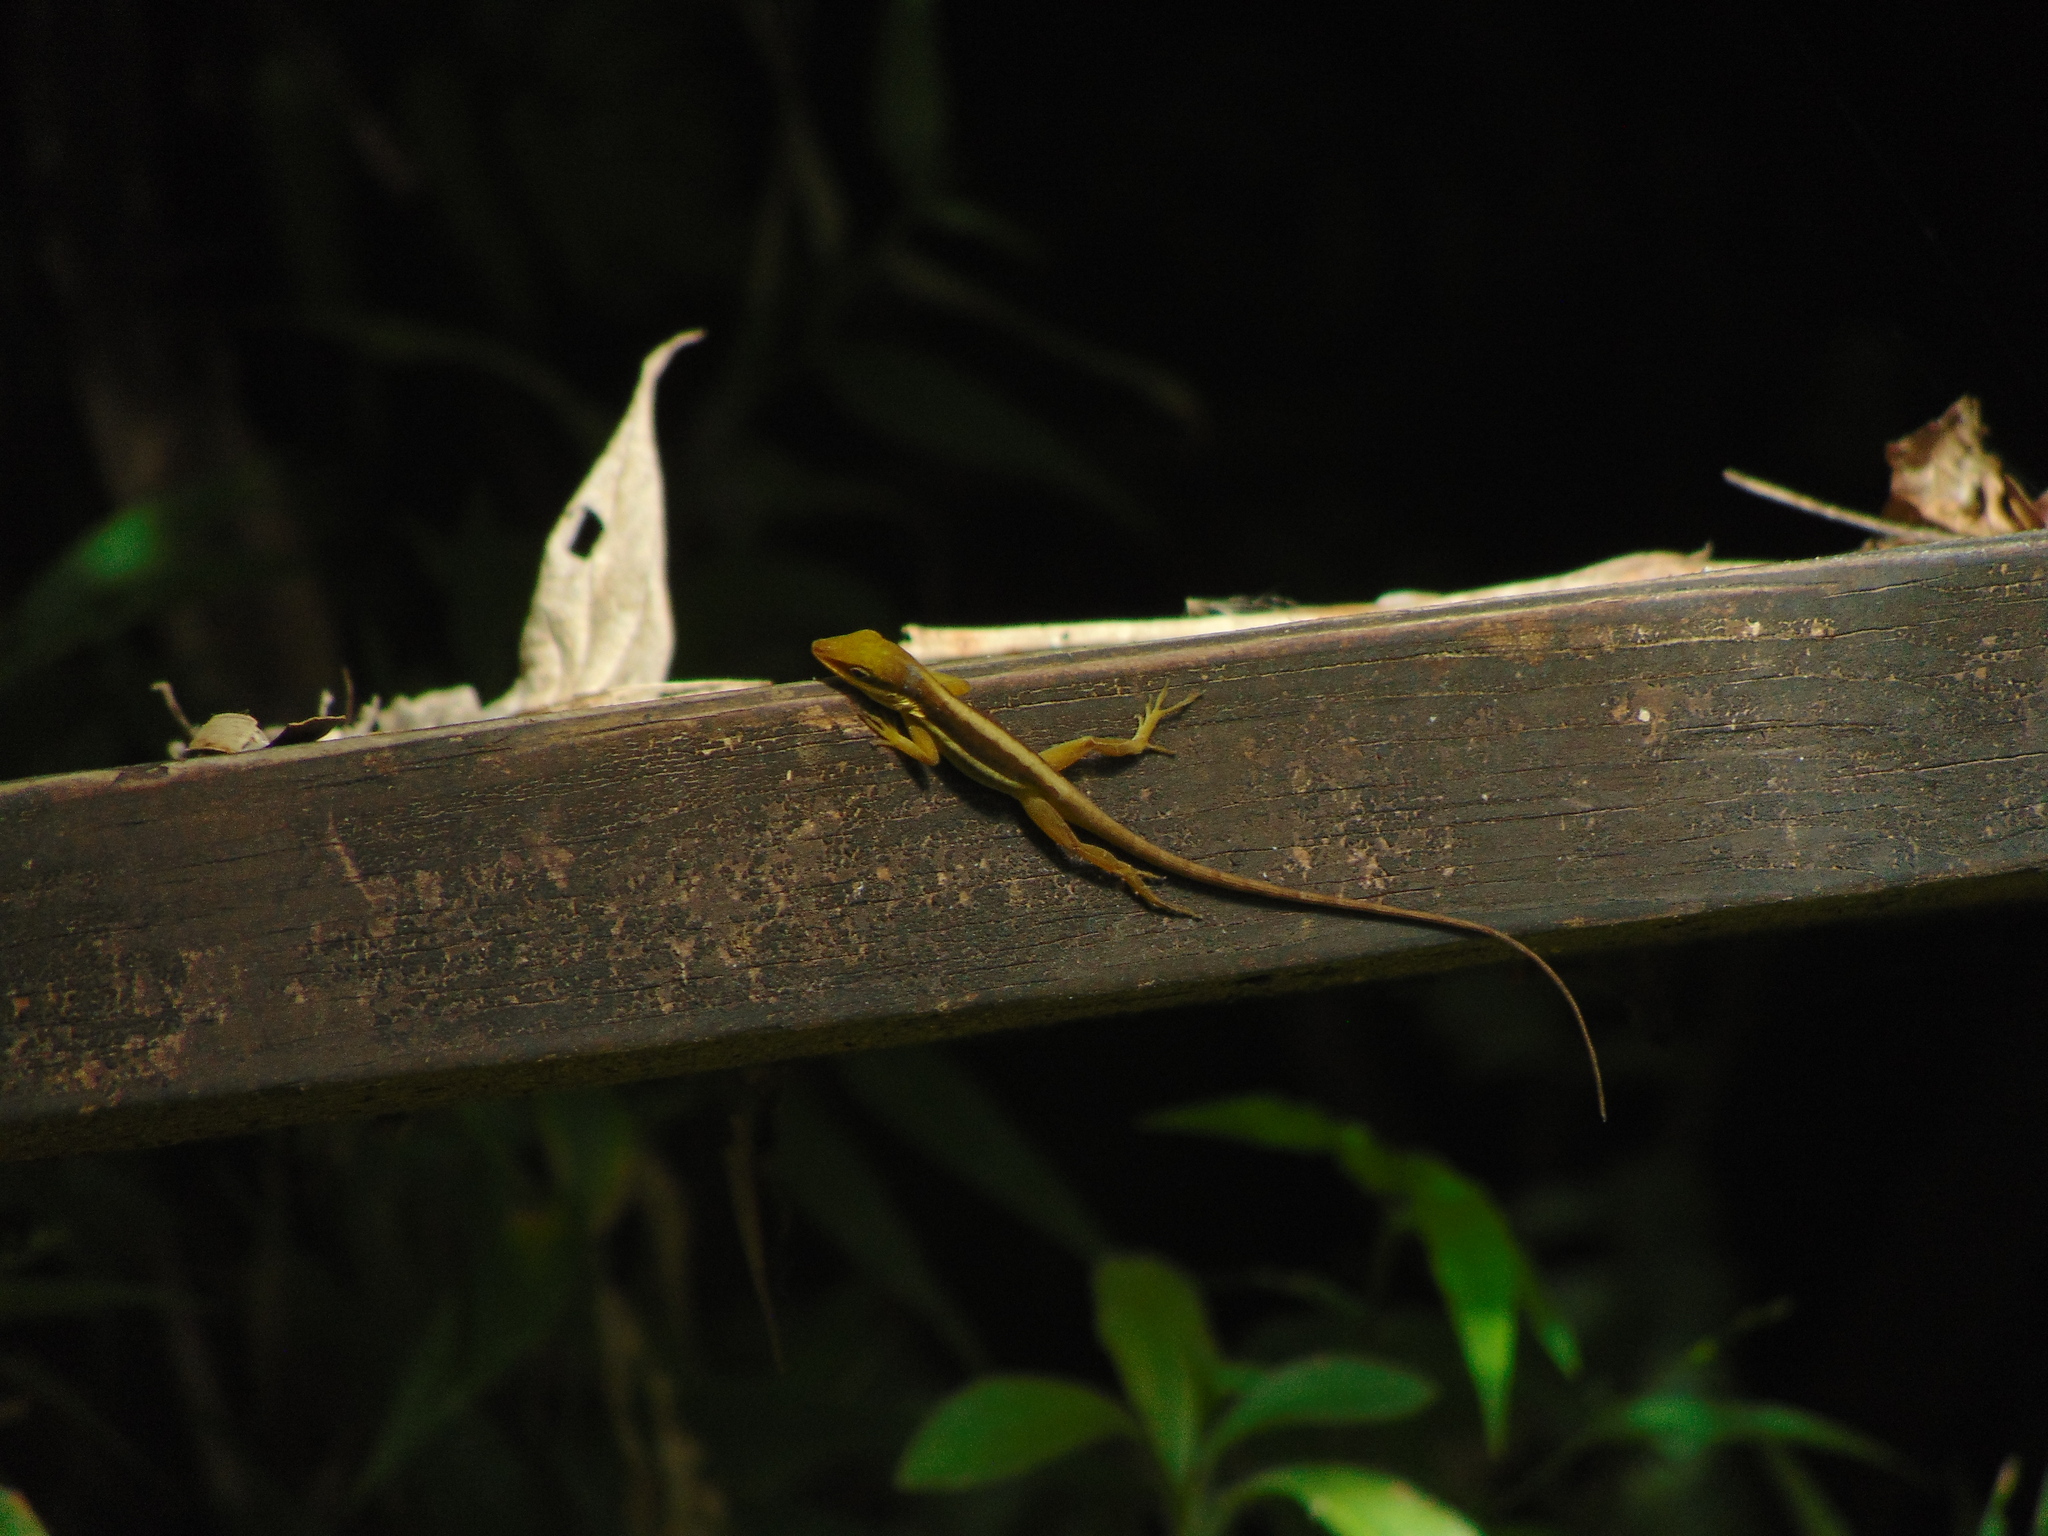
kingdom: Animalia
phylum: Chordata
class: Squamata
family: Dactyloidae
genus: Anolis
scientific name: Anolis krugi
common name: Krug's anole
